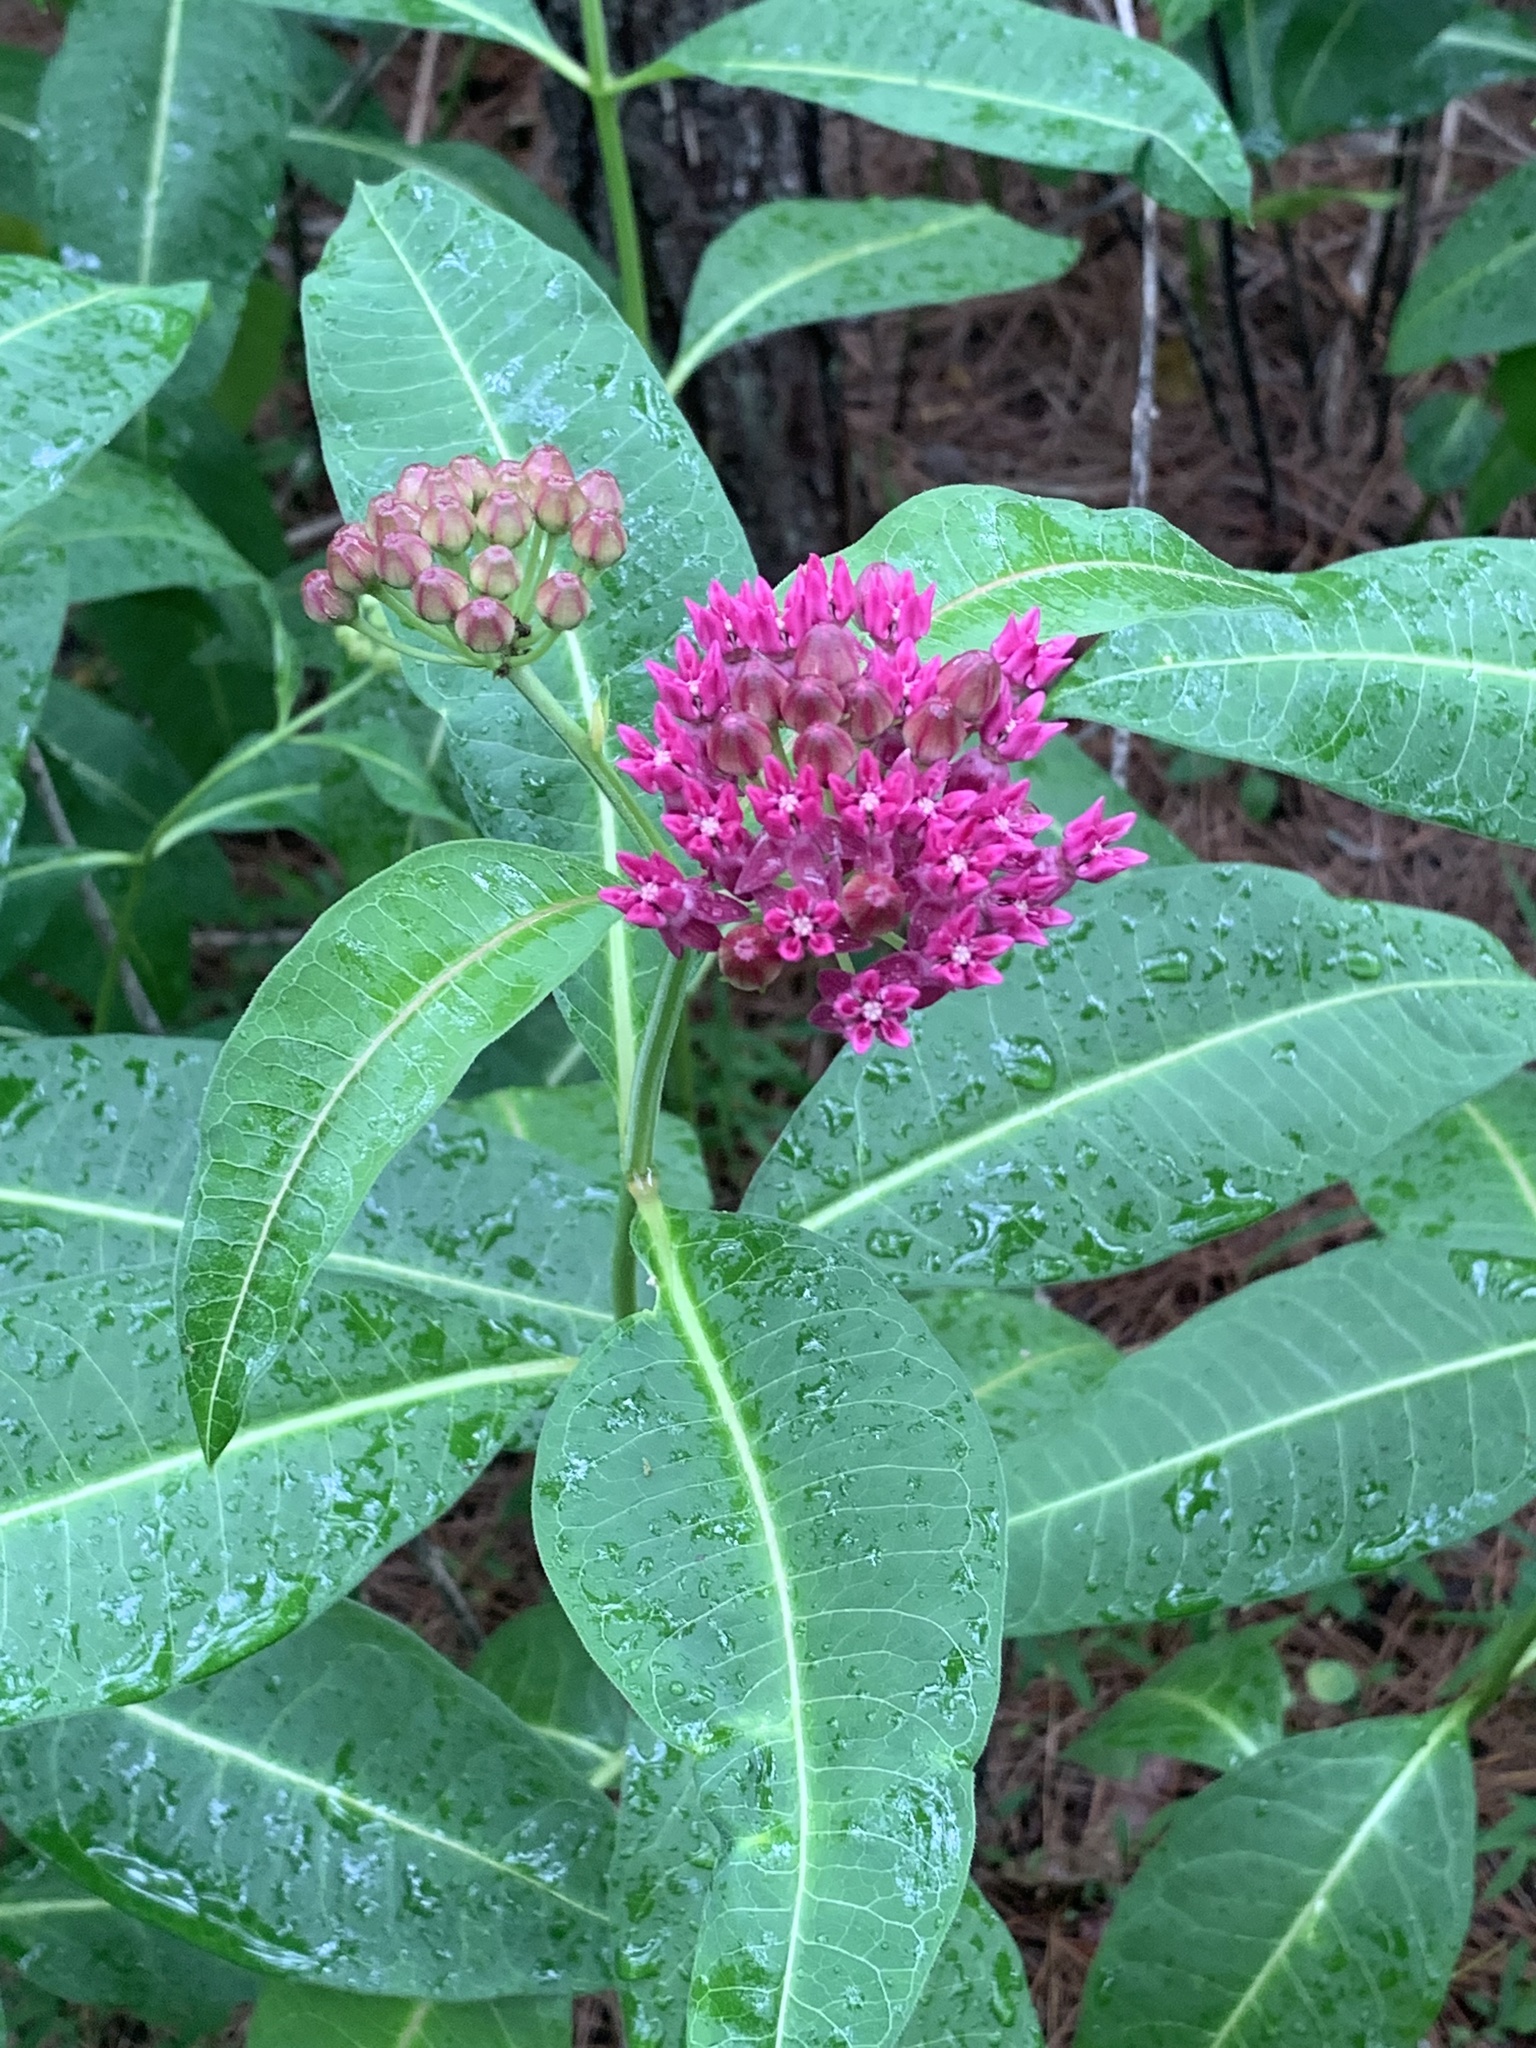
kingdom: Plantae
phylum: Tracheophyta
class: Magnoliopsida
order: Gentianales
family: Apocynaceae
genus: Asclepias
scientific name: Asclepias purpurascens
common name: Purple milkweed
